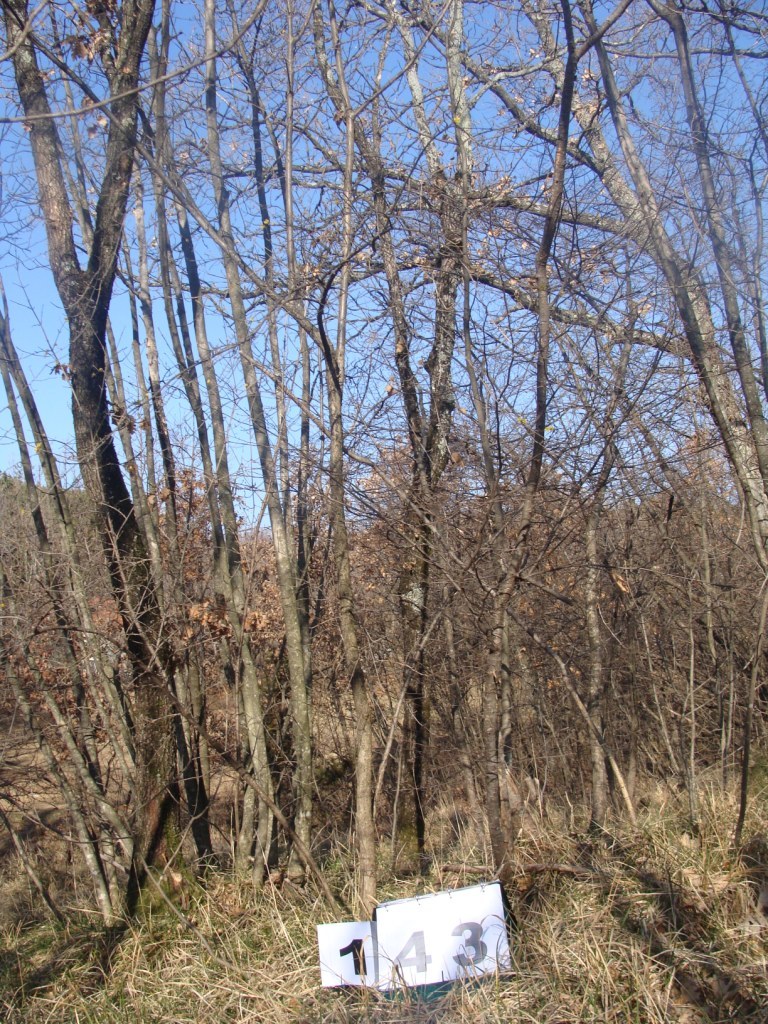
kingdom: Plantae
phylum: Tracheophyta
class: Magnoliopsida
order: Cornales
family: Cornaceae
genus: Cornus
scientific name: Cornus mas
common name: Cornelian-cherry
